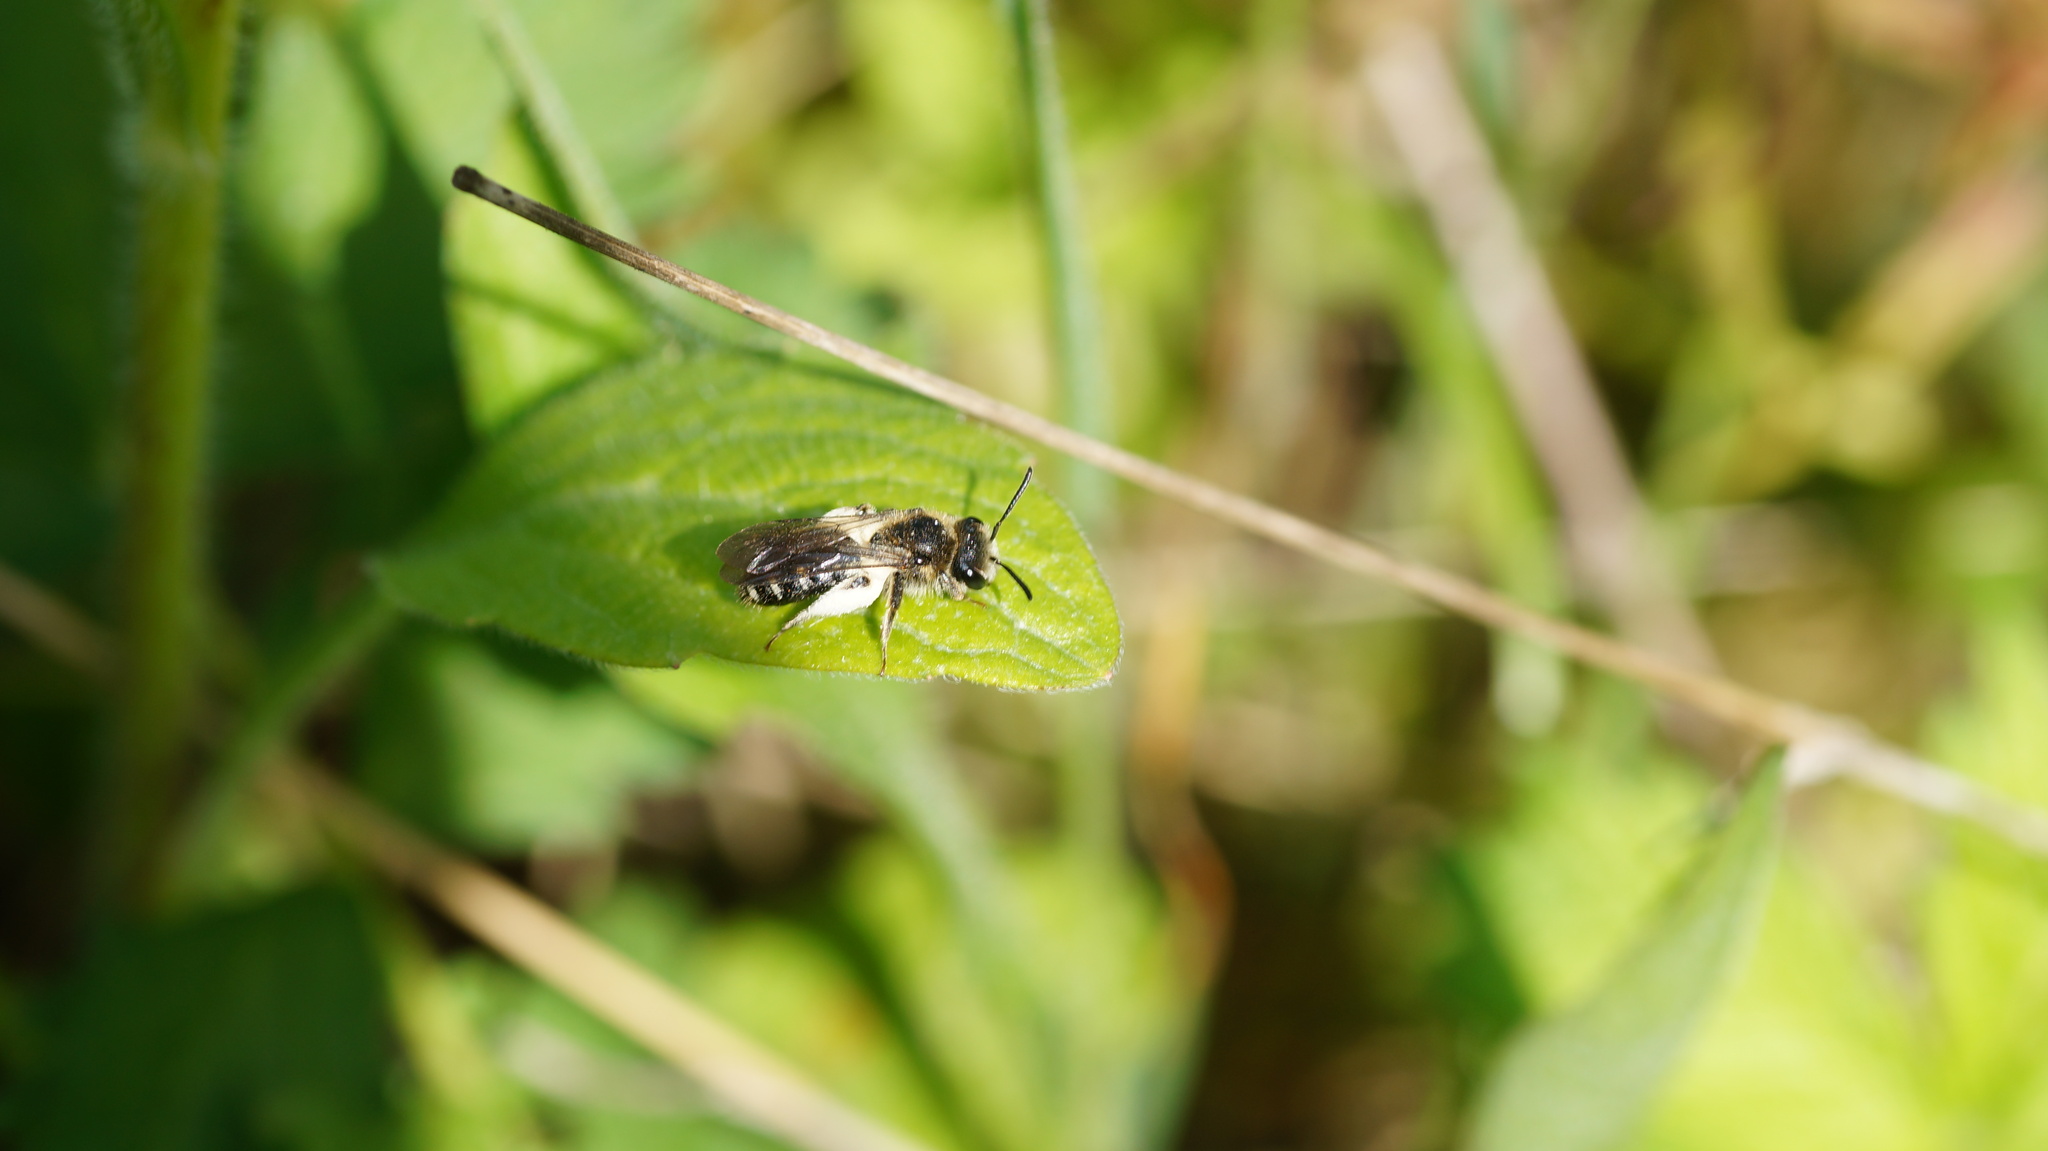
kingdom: Animalia
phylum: Arthropoda
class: Insecta
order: Hymenoptera
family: Andrenidae
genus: Andrena
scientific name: Andrena
